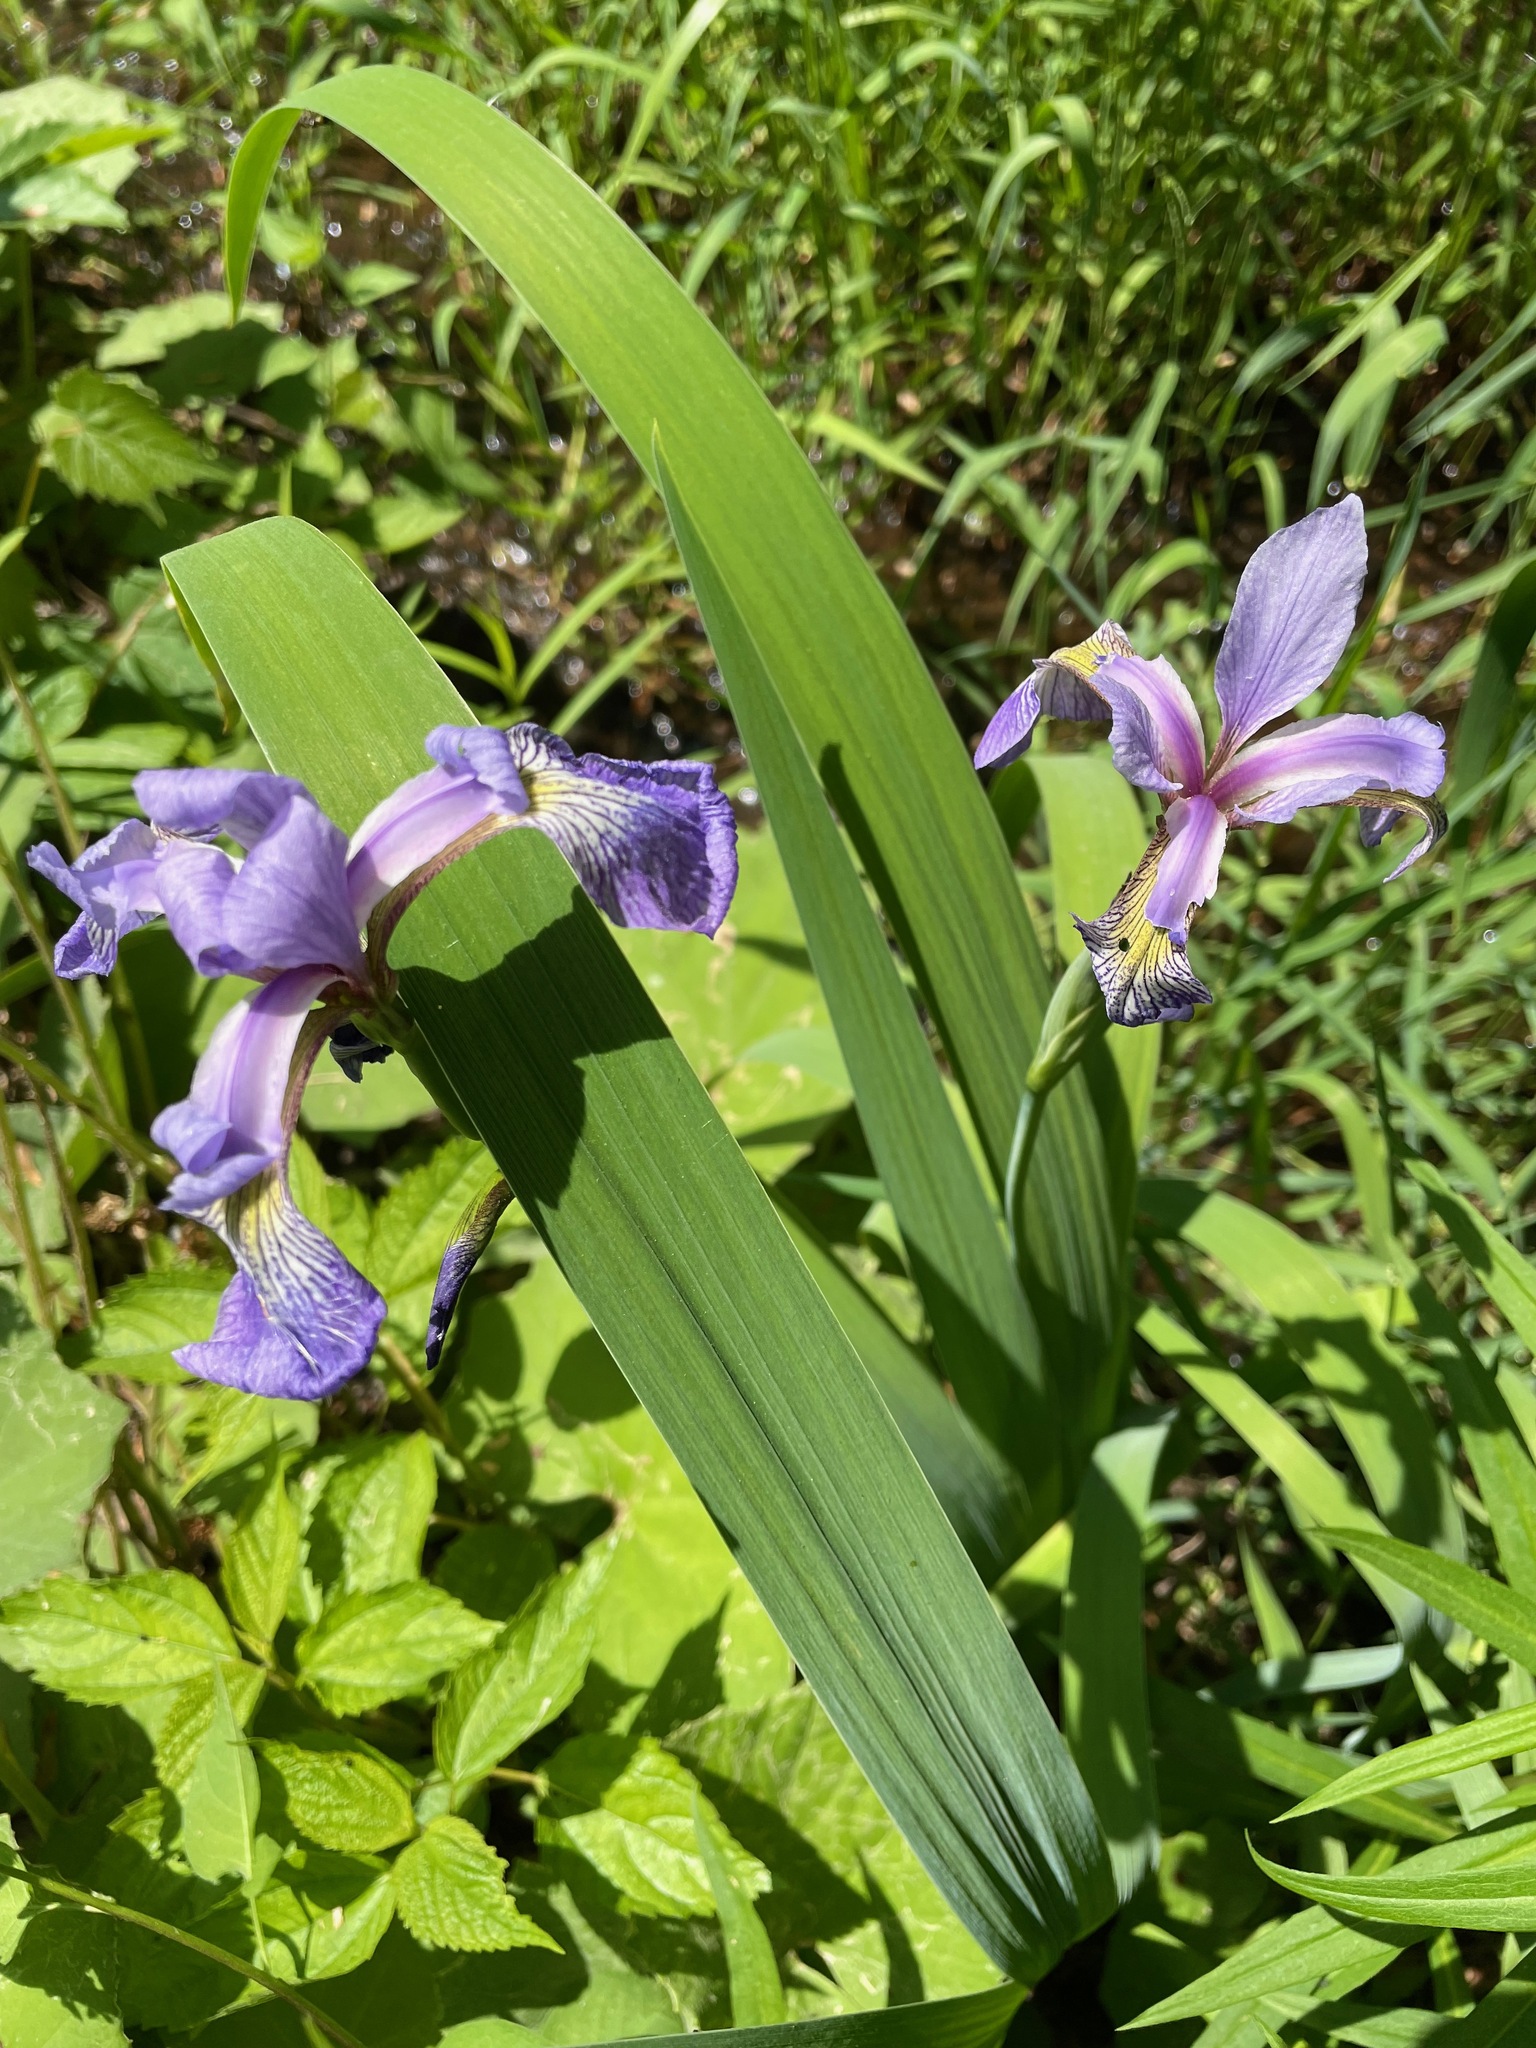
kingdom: Plantae
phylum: Tracheophyta
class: Liliopsida
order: Asparagales
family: Iridaceae
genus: Iris
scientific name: Iris versicolor
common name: Purple iris
